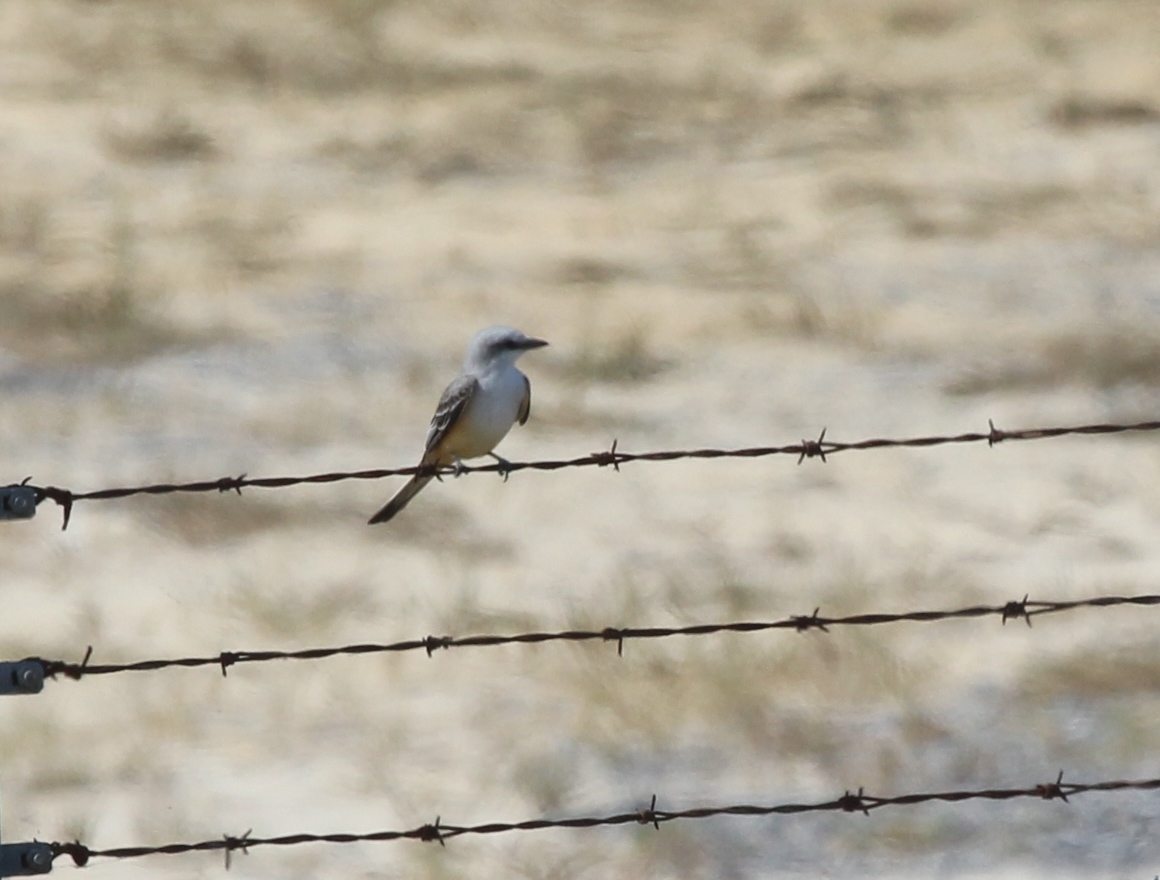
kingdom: Animalia
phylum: Chordata
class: Aves
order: Passeriformes
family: Tyrannidae
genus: Tyrannus
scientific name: Tyrannus forficatus
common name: Scissor-tailed flycatcher
